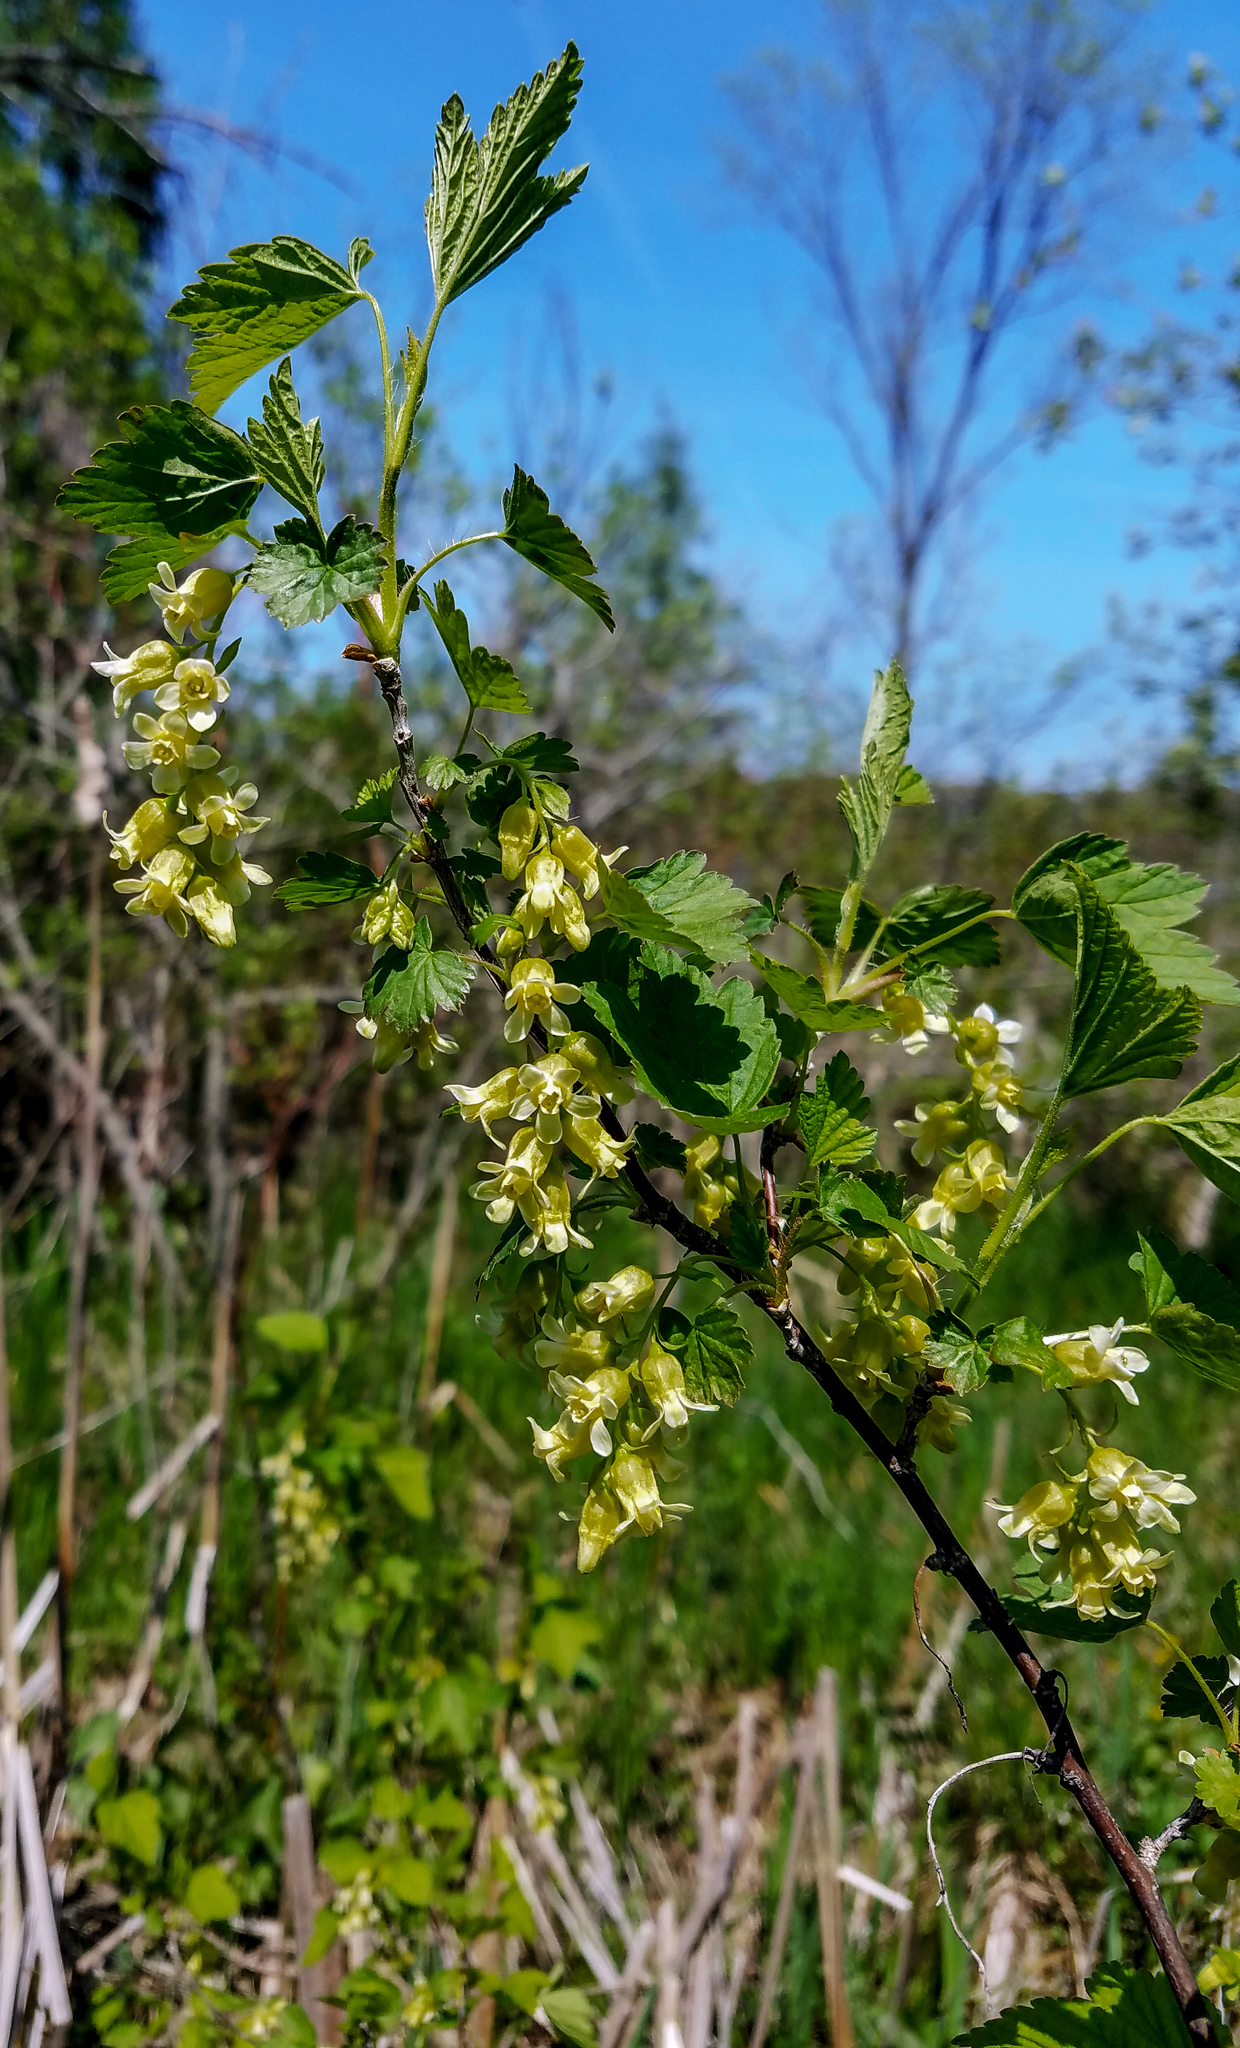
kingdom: Plantae
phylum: Tracheophyta
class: Magnoliopsida
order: Saxifragales
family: Grossulariaceae
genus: Ribes
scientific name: Ribes americanum
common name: American black currant
